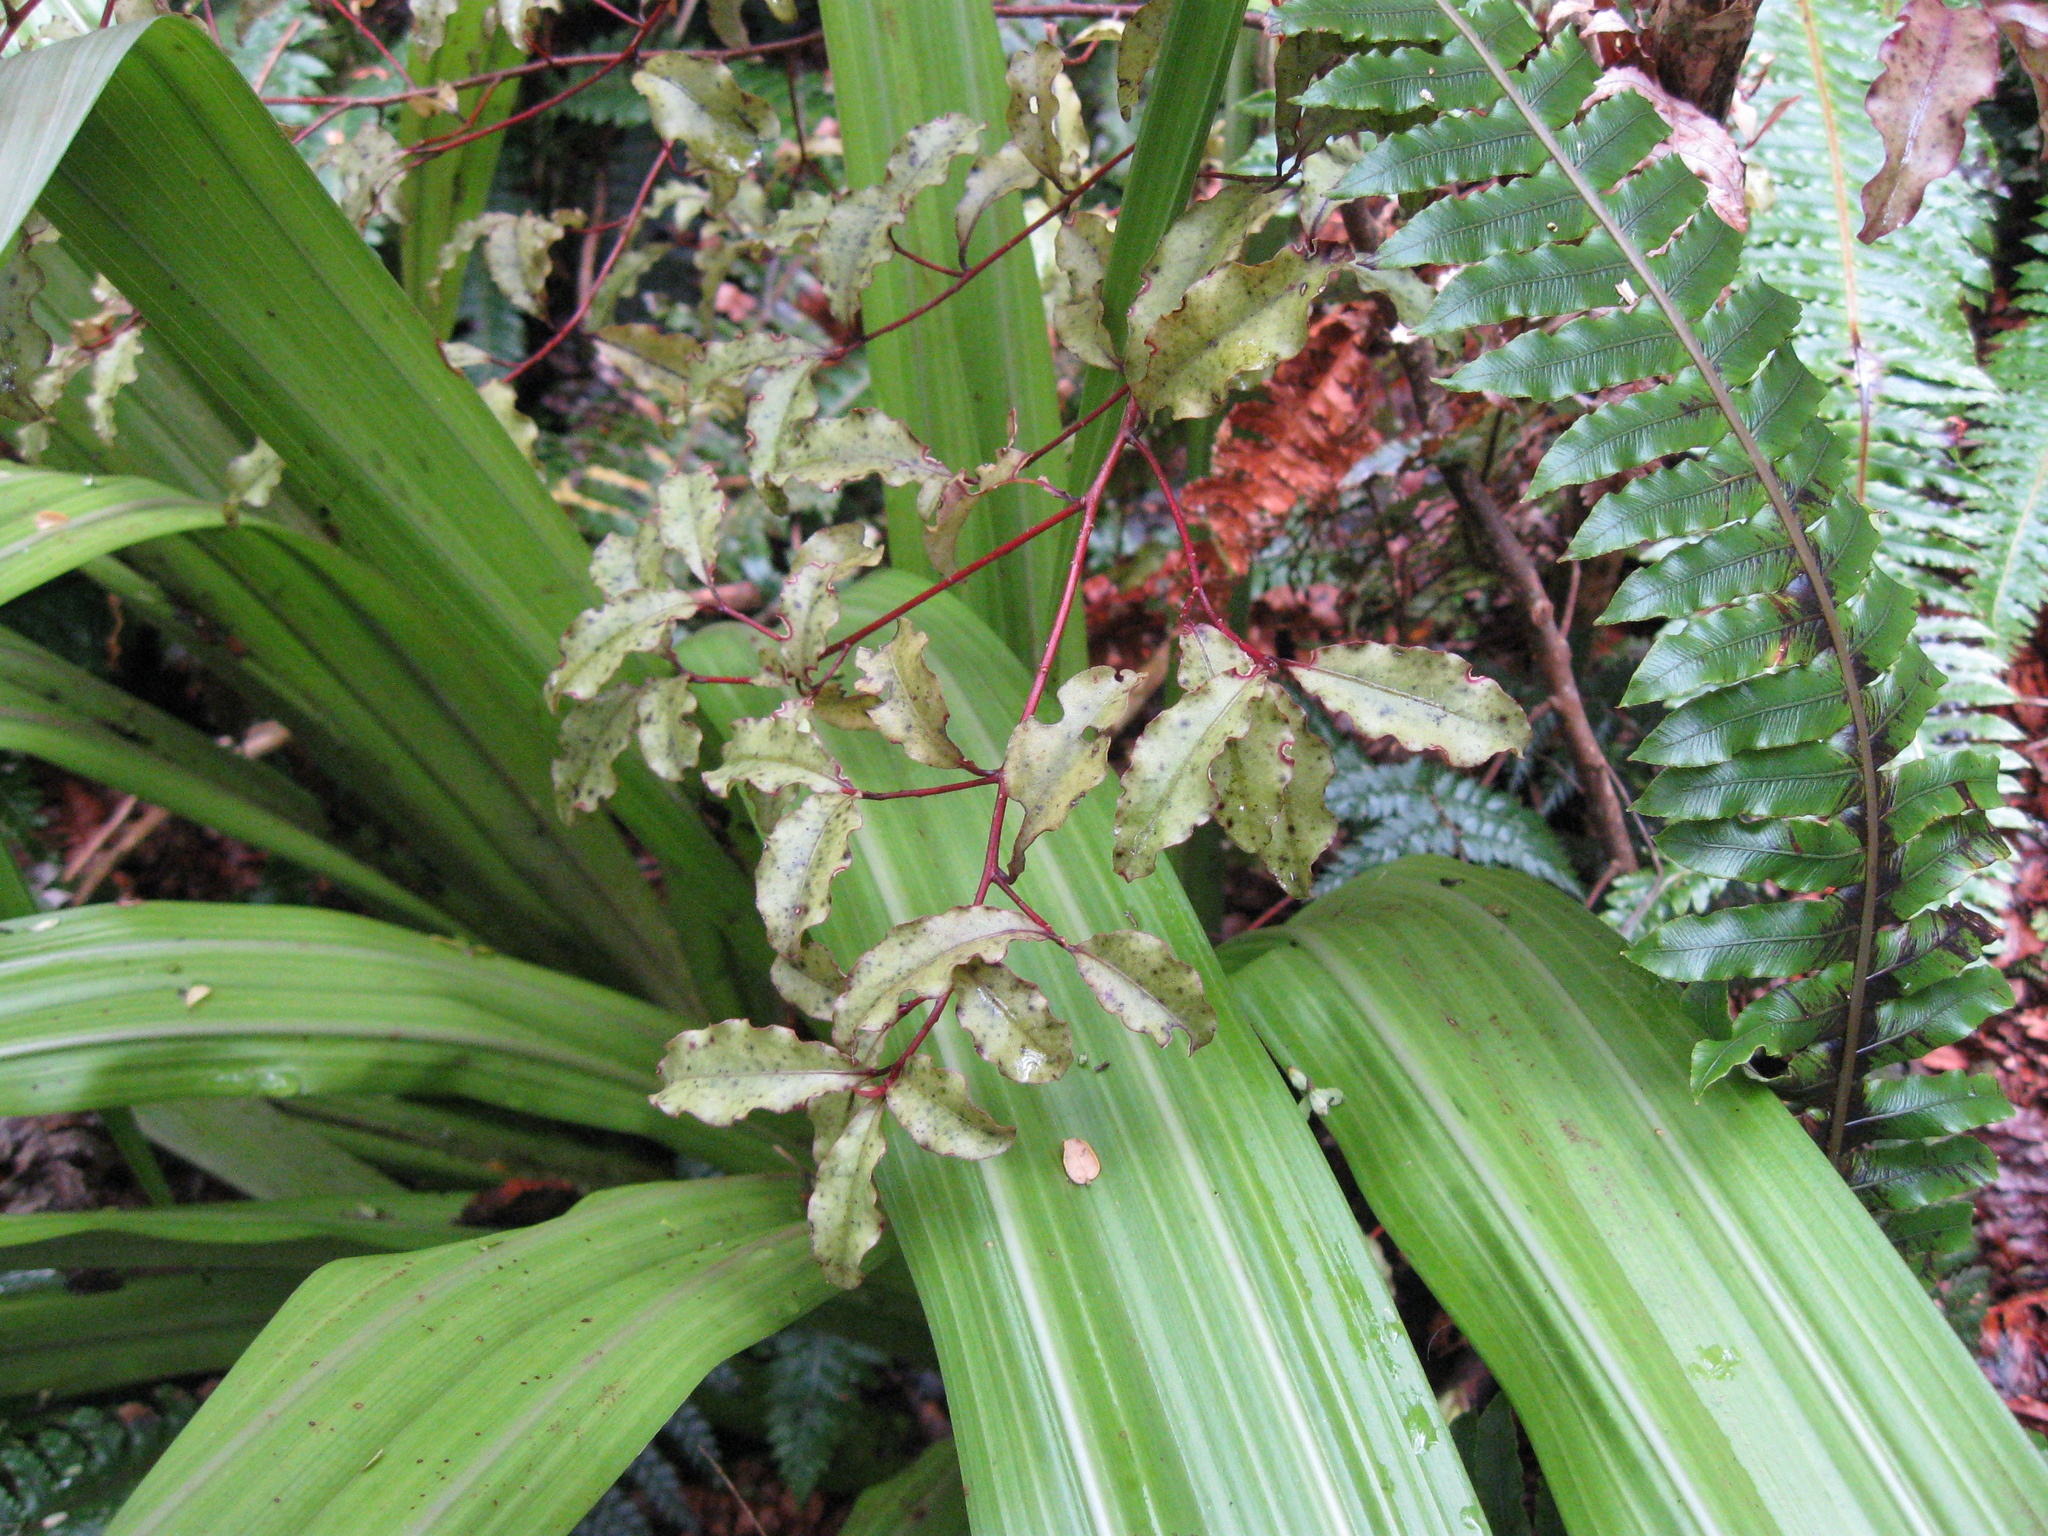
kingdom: Plantae
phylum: Tracheophyta
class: Magnoliopsida
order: Ericales
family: Primulaceae
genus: Myrsine
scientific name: Myrsine australis
